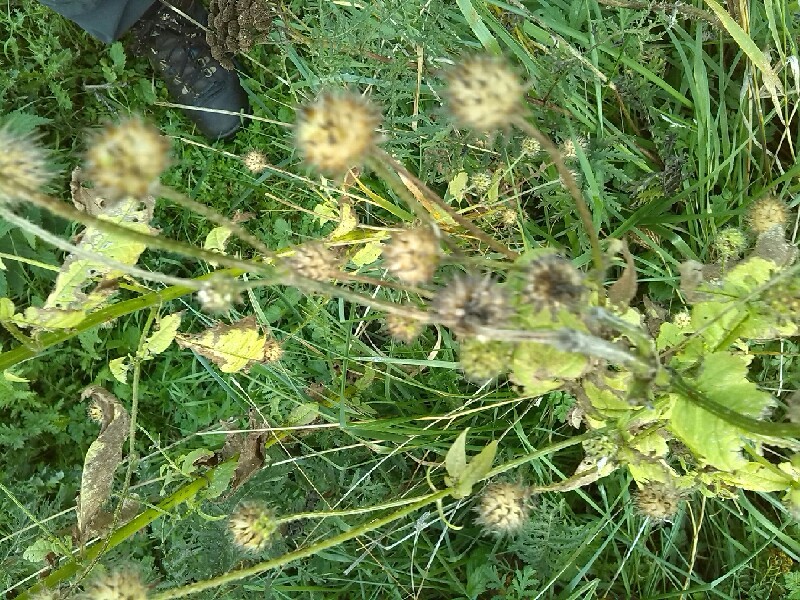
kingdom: Plantae
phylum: Tracheophyta
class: Magnoliopsida
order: Dipsacales
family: Caprifoliaceae
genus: Dipsacus
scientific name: Dipsacus pilosus
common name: Small teasel
